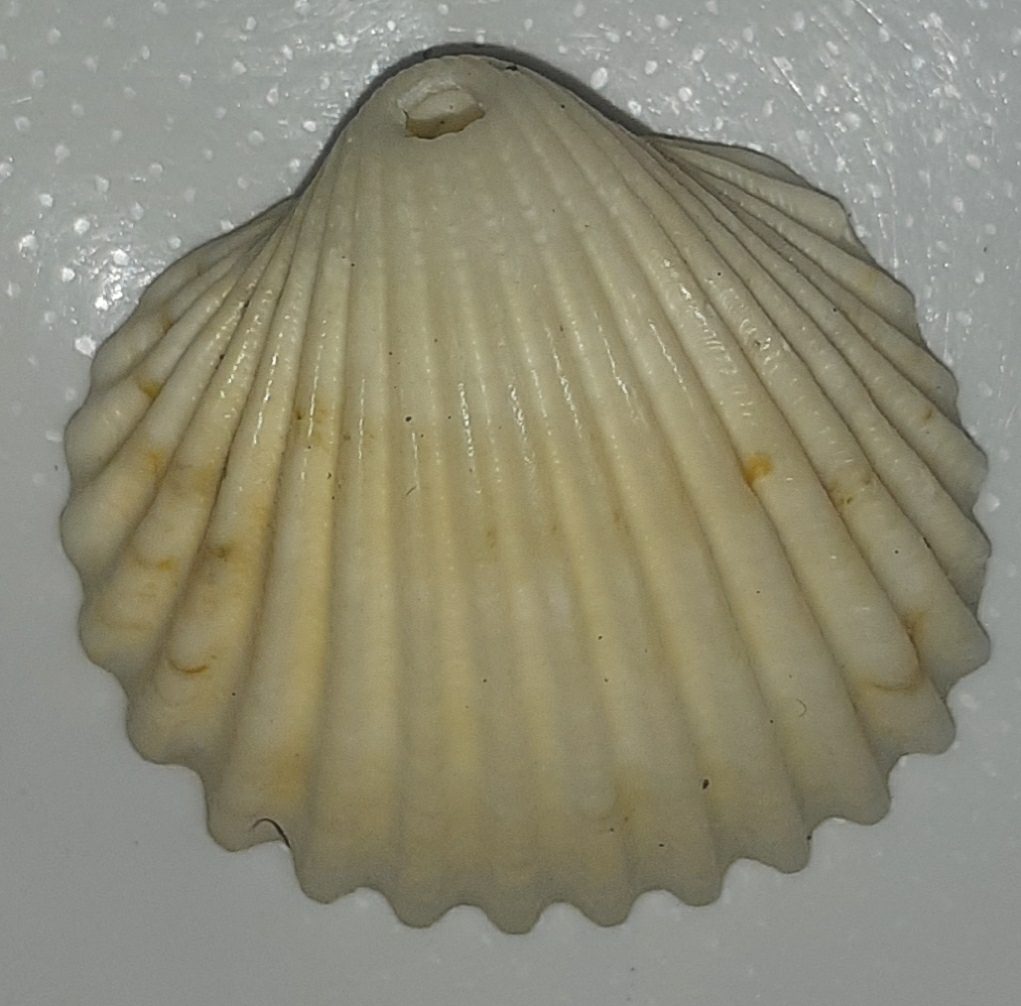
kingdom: Animalia
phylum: Mollusca
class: Bivalvia
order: Cardiida
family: Cardiidae
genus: Acanthocardia
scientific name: Acanthocardia tuberculata
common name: Rough cockle
